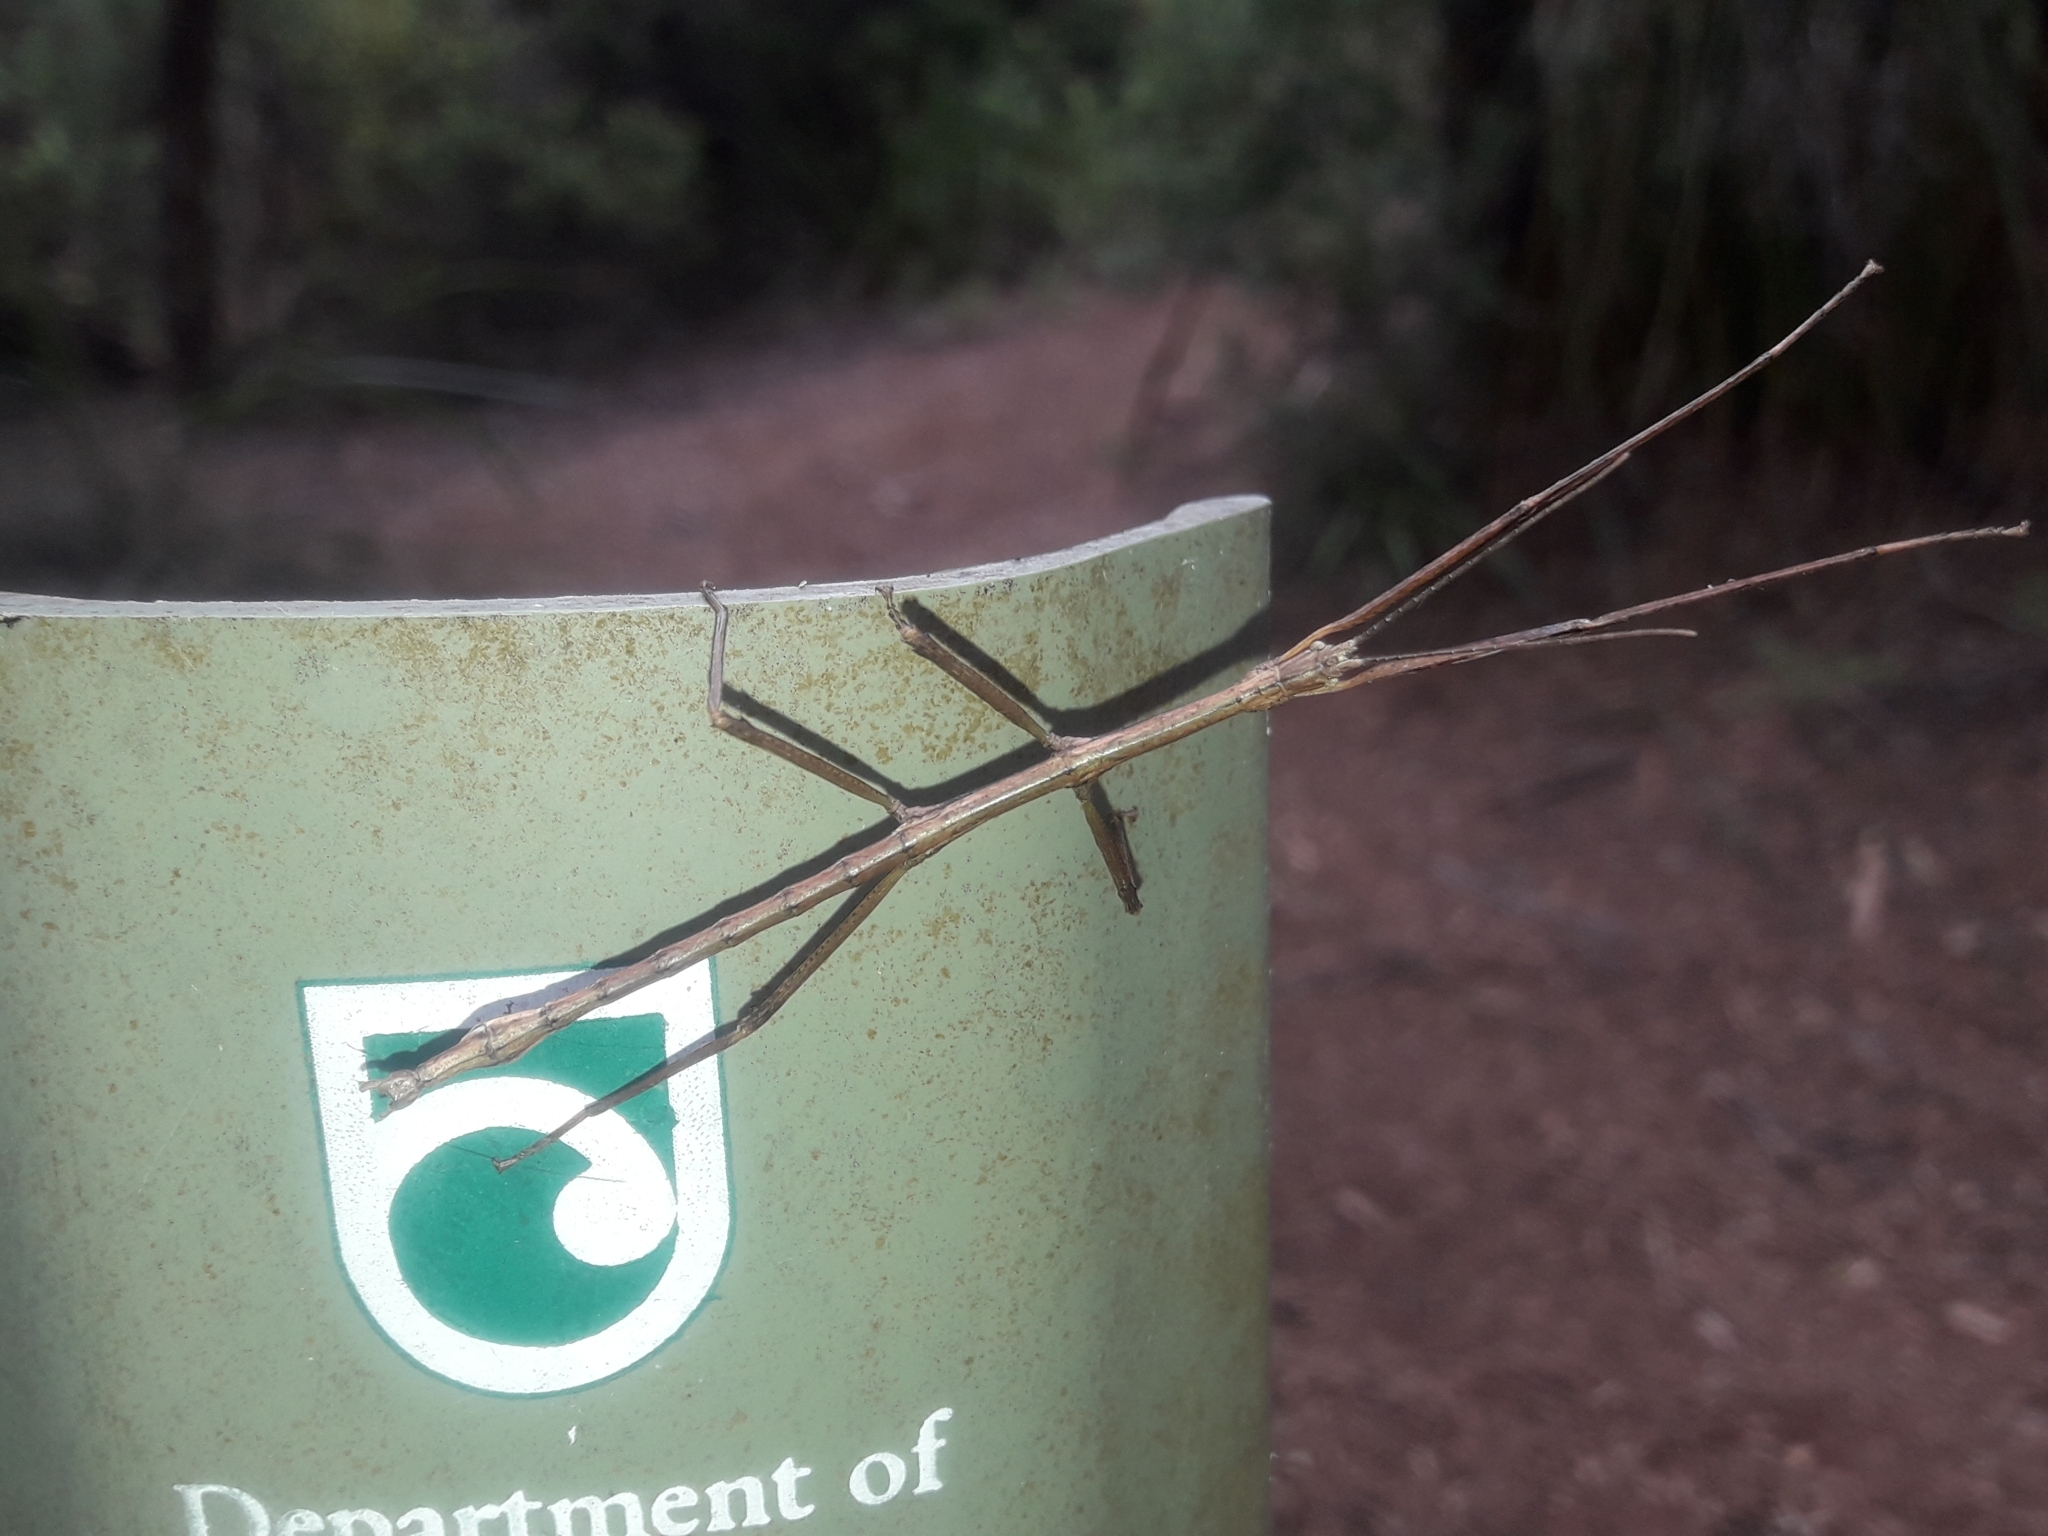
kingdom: Animalia
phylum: Arthropoda
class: Insecta
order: Phasmida
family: Phasmatidae
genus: Clitarchus
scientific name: Clitarchus hookeri
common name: Smooth stick insect
